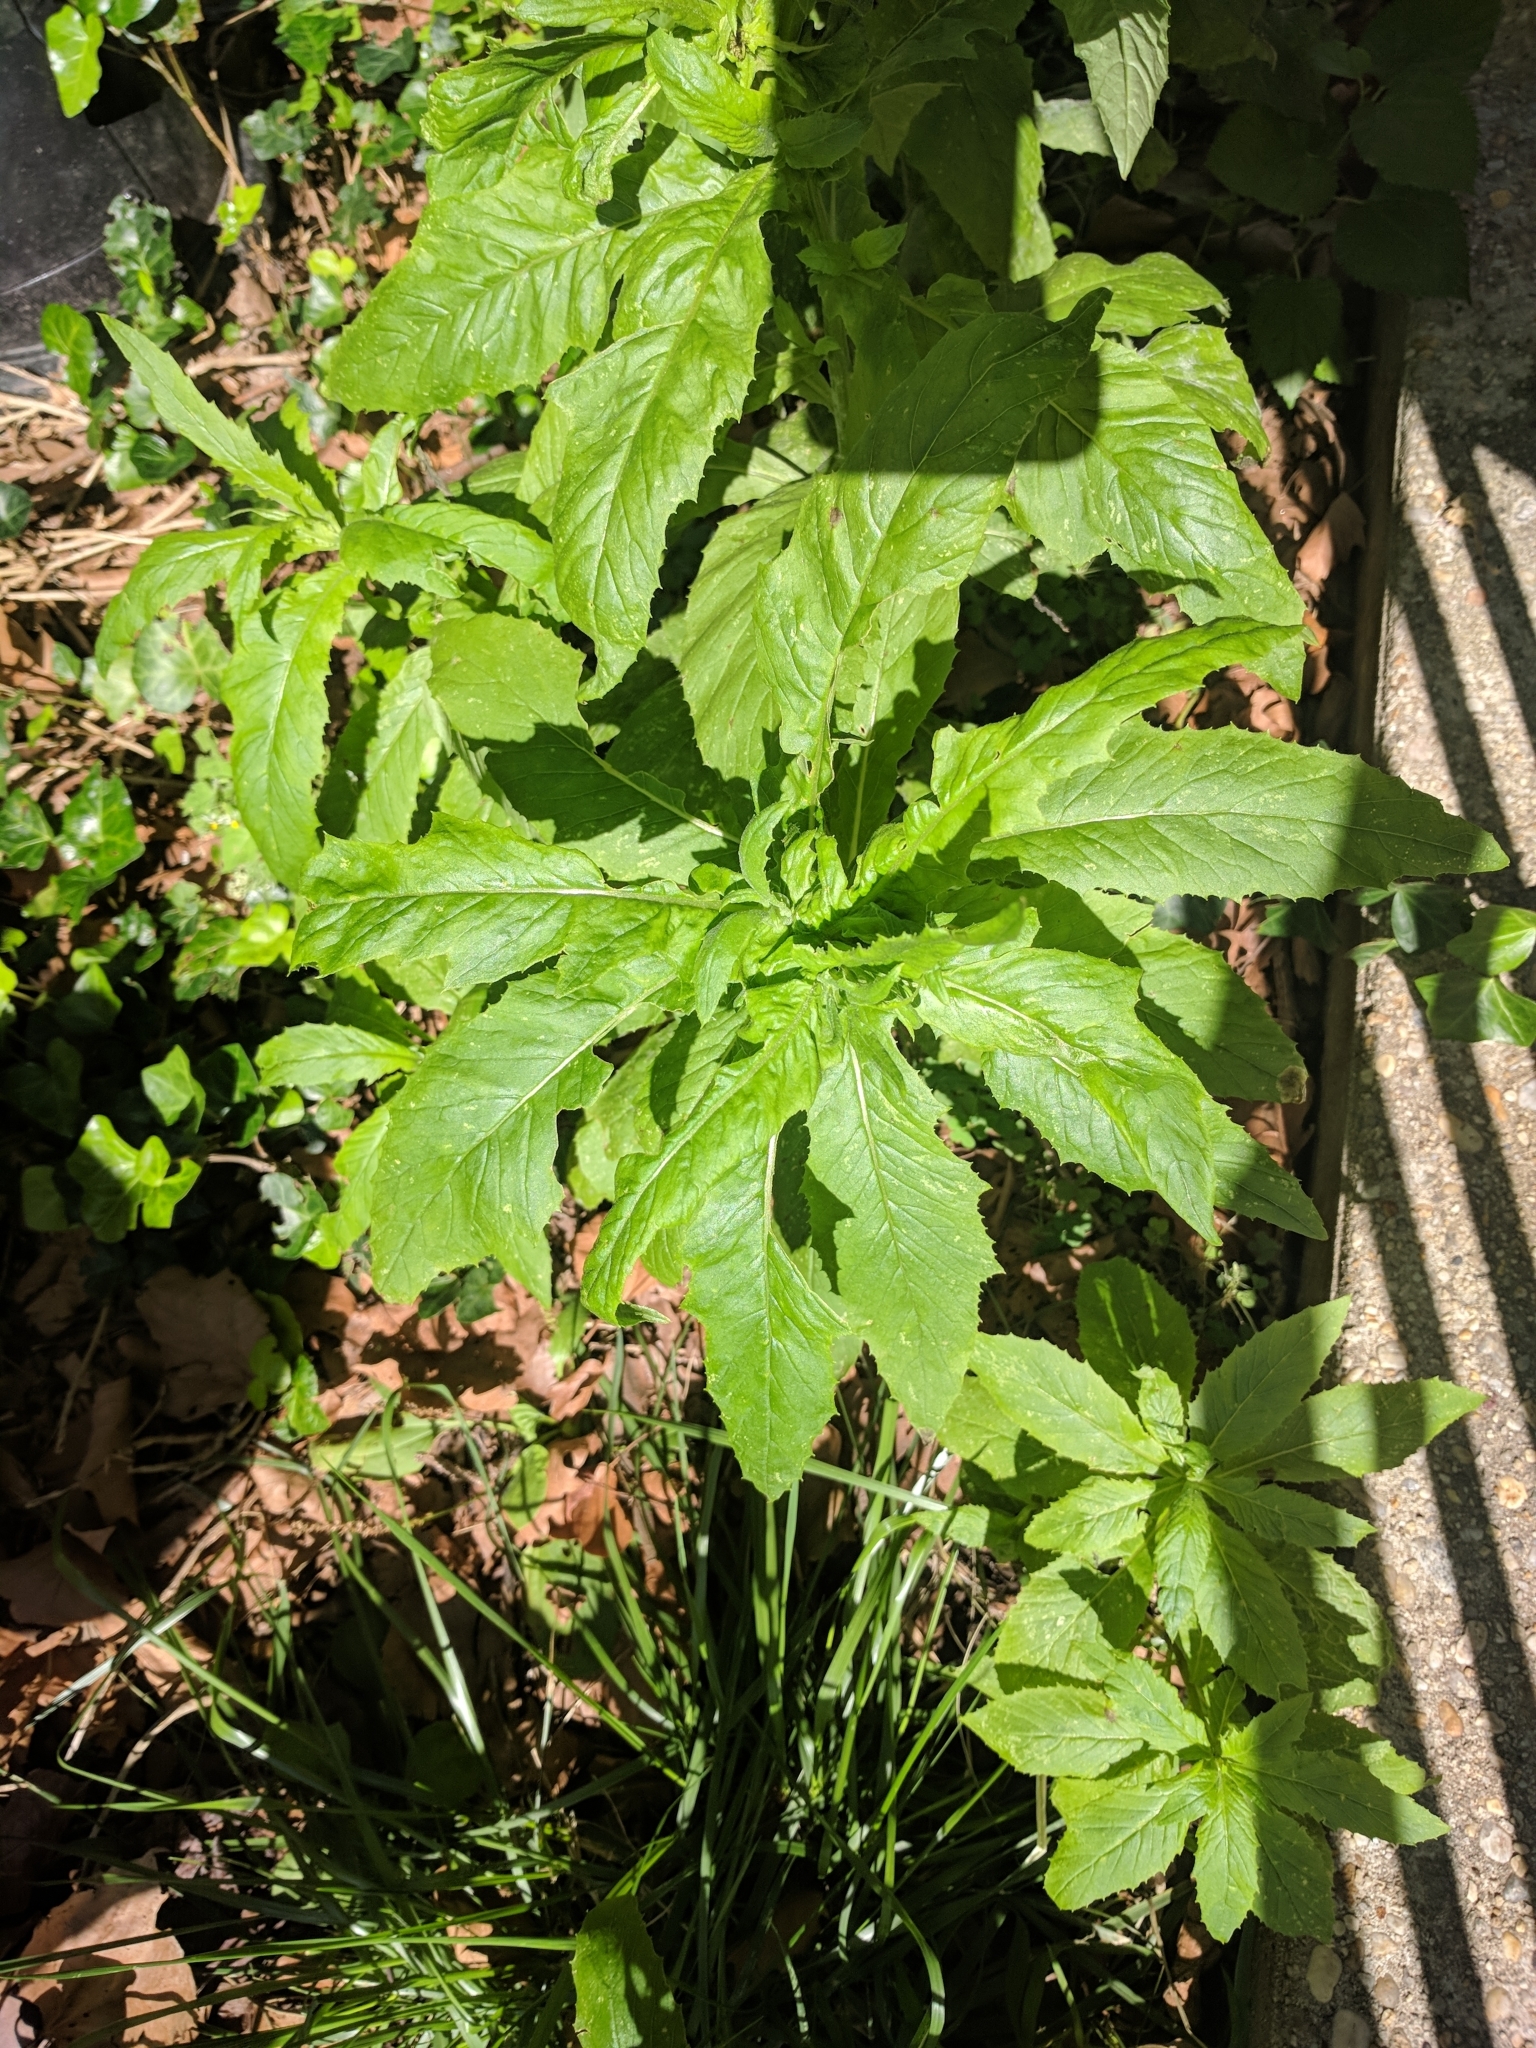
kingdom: Plantae
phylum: Tracheophyta
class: Magnoliopsida
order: Asterales
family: Asteraceae
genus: Erechtites
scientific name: Erechtites hieraciifolius
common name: American burnweed
